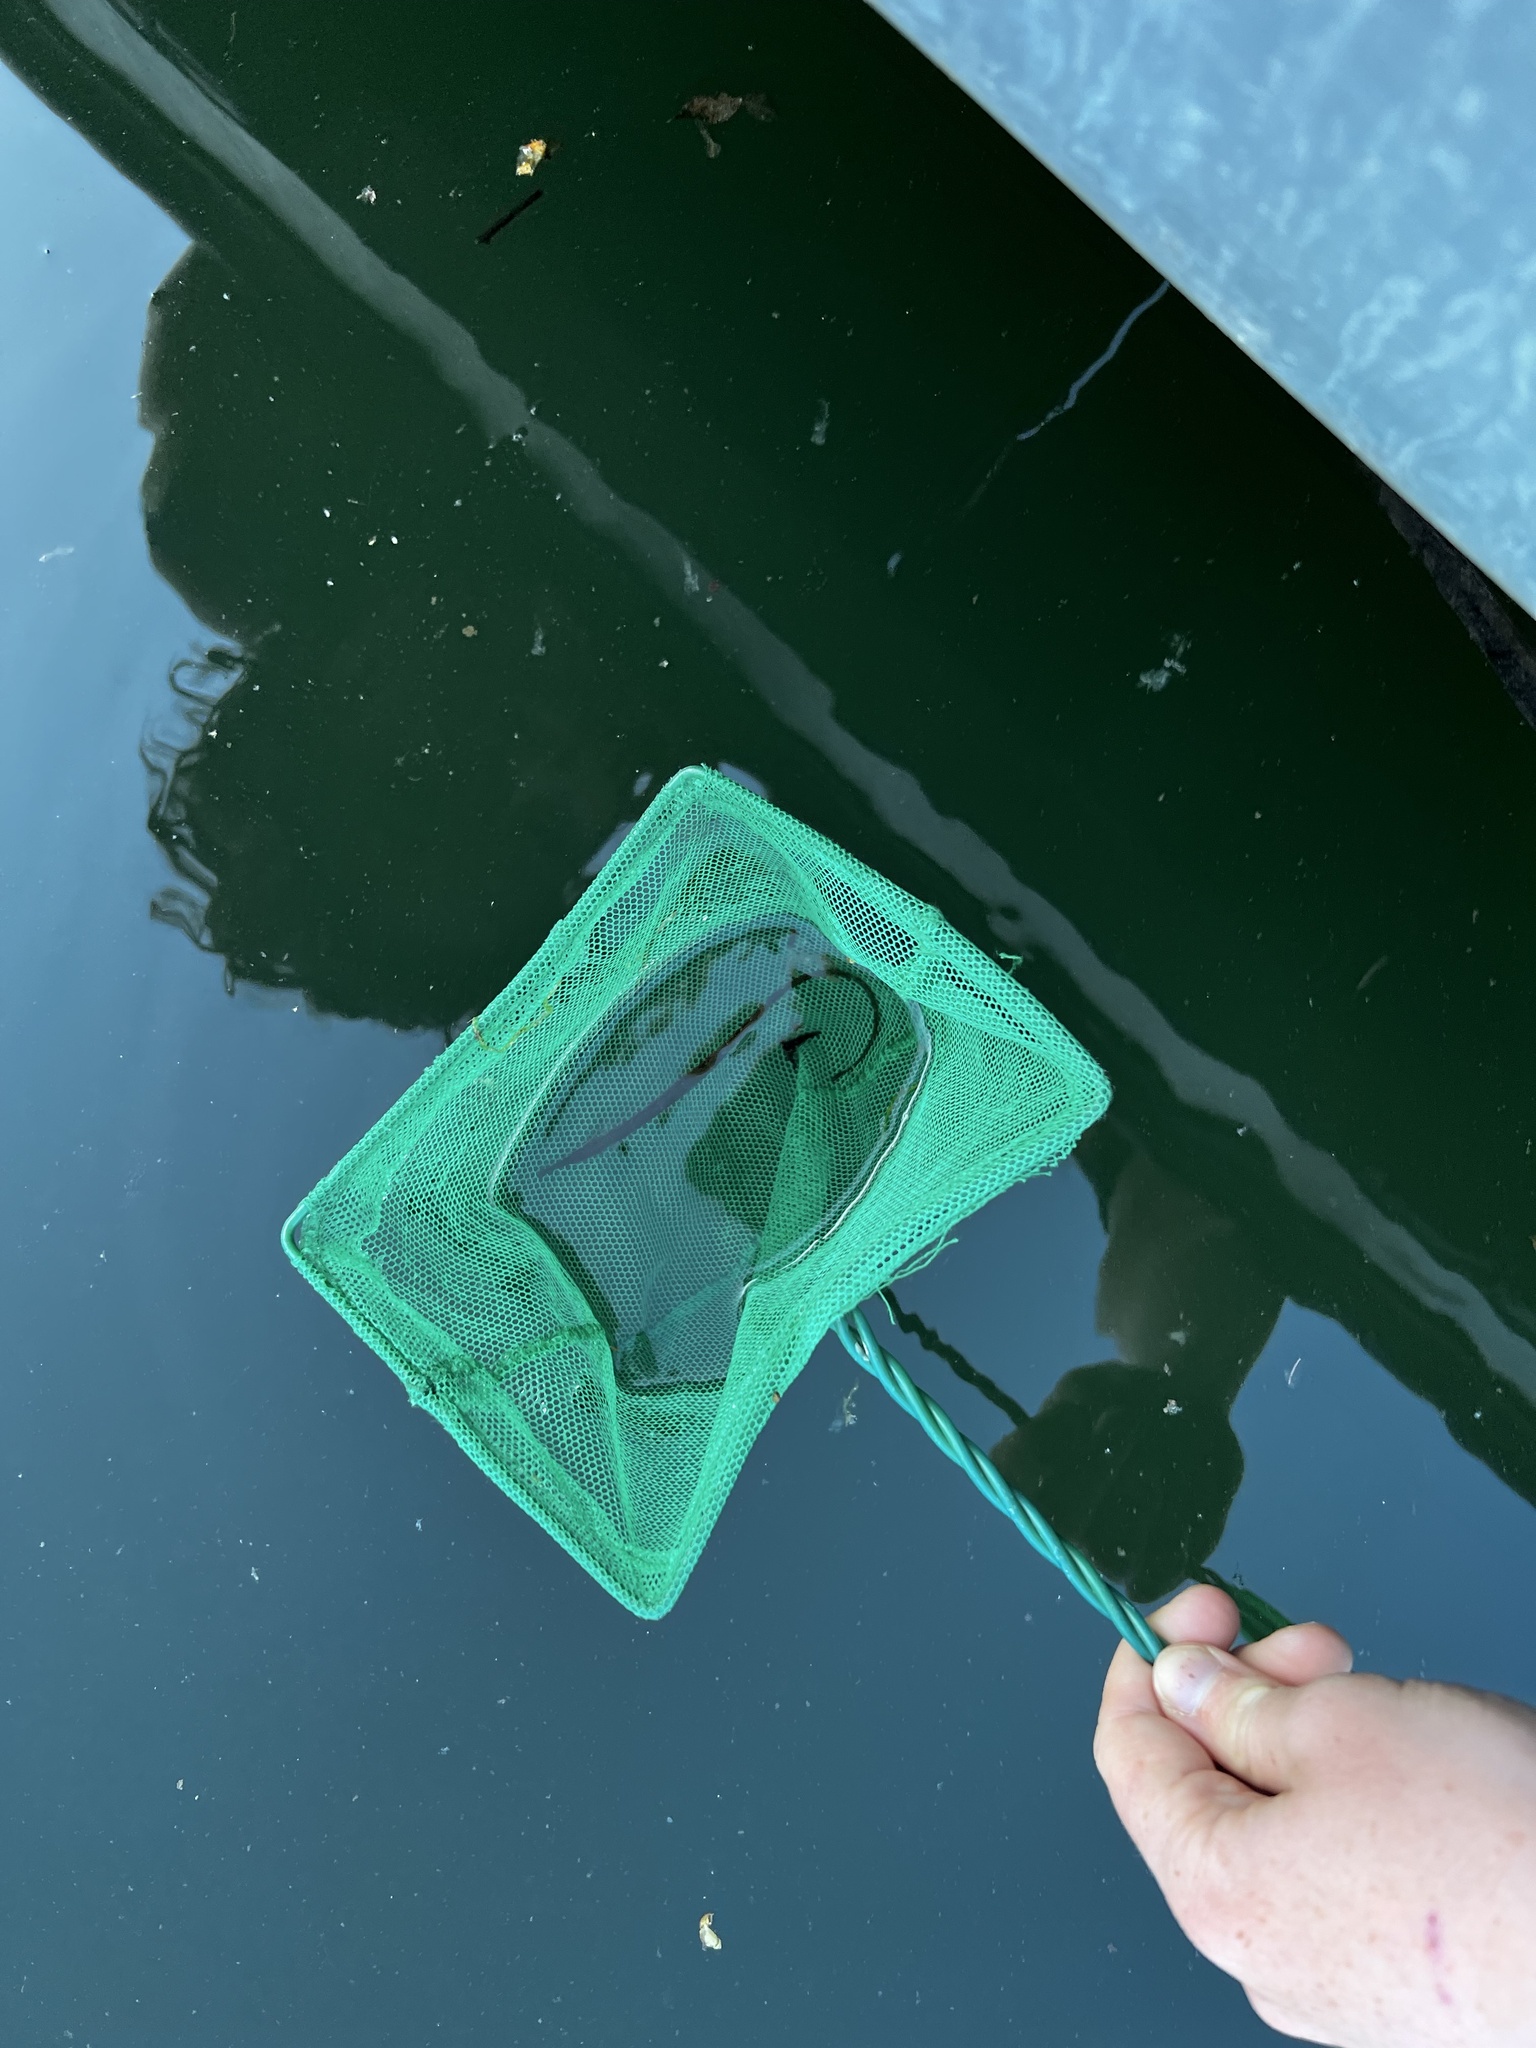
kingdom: Animalia
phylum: Chordata
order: Syngnathiformes
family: Syngnathidae
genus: Syngnathus
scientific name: Syngnathus californiensis
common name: Great pipefish
